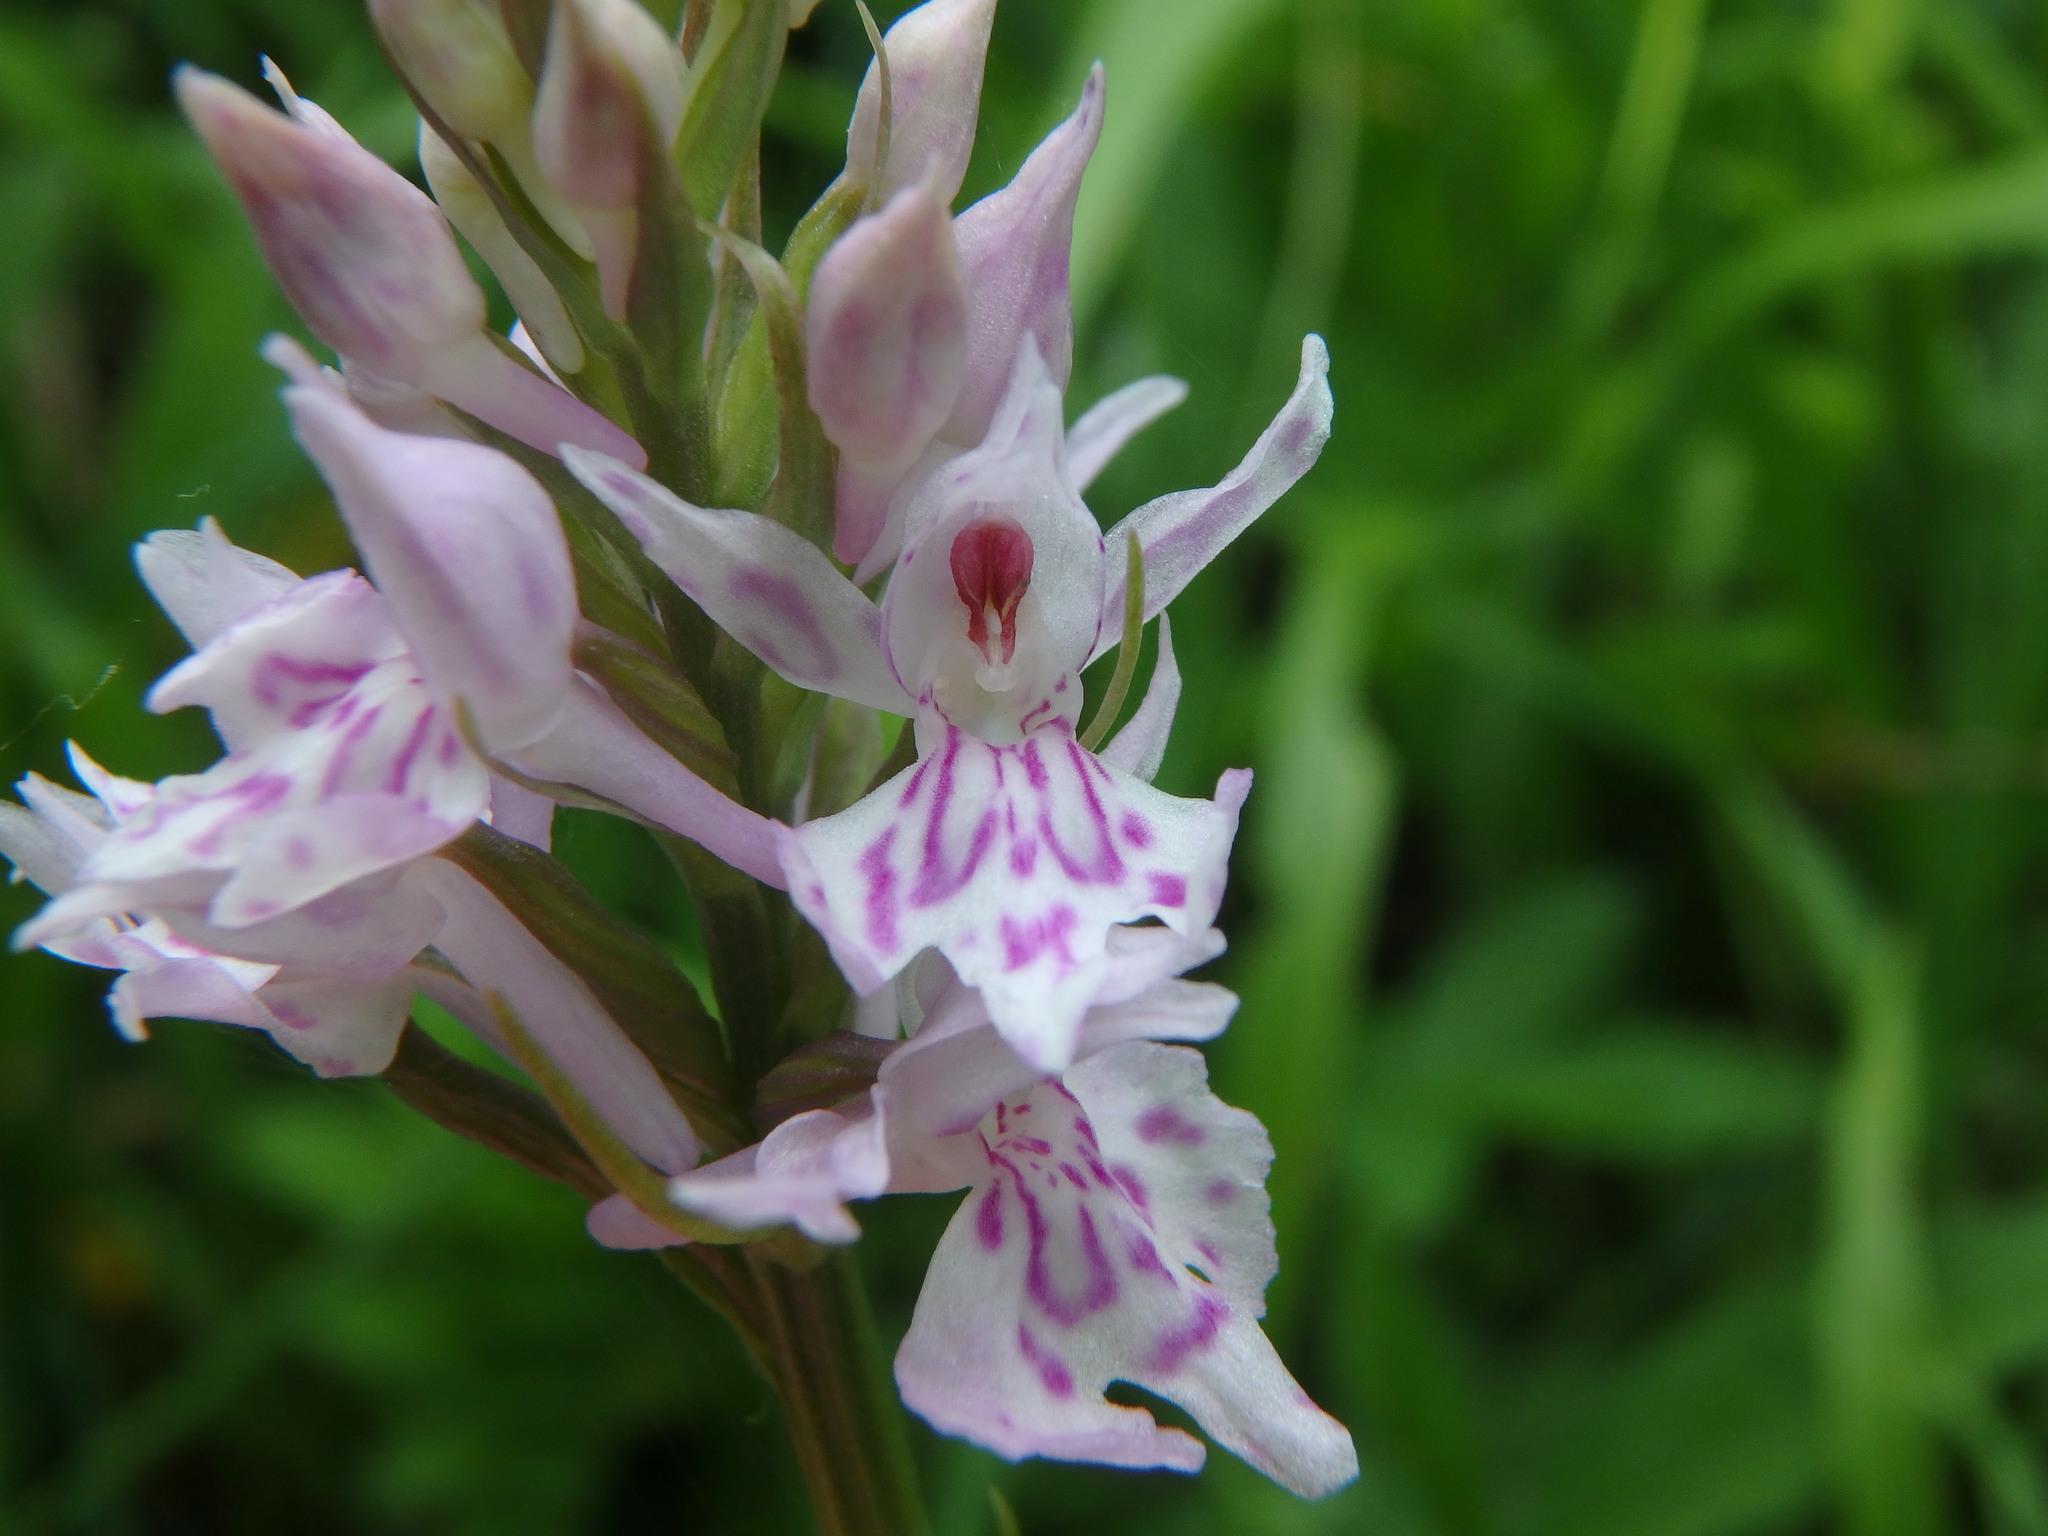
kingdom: Plantae
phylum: Tracheophyta
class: Liliopsida
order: Asparagales
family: Orchidaceae
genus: Dactylorhiza
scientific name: Dactylorhiza maculata
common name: Heath spotted-orchid
